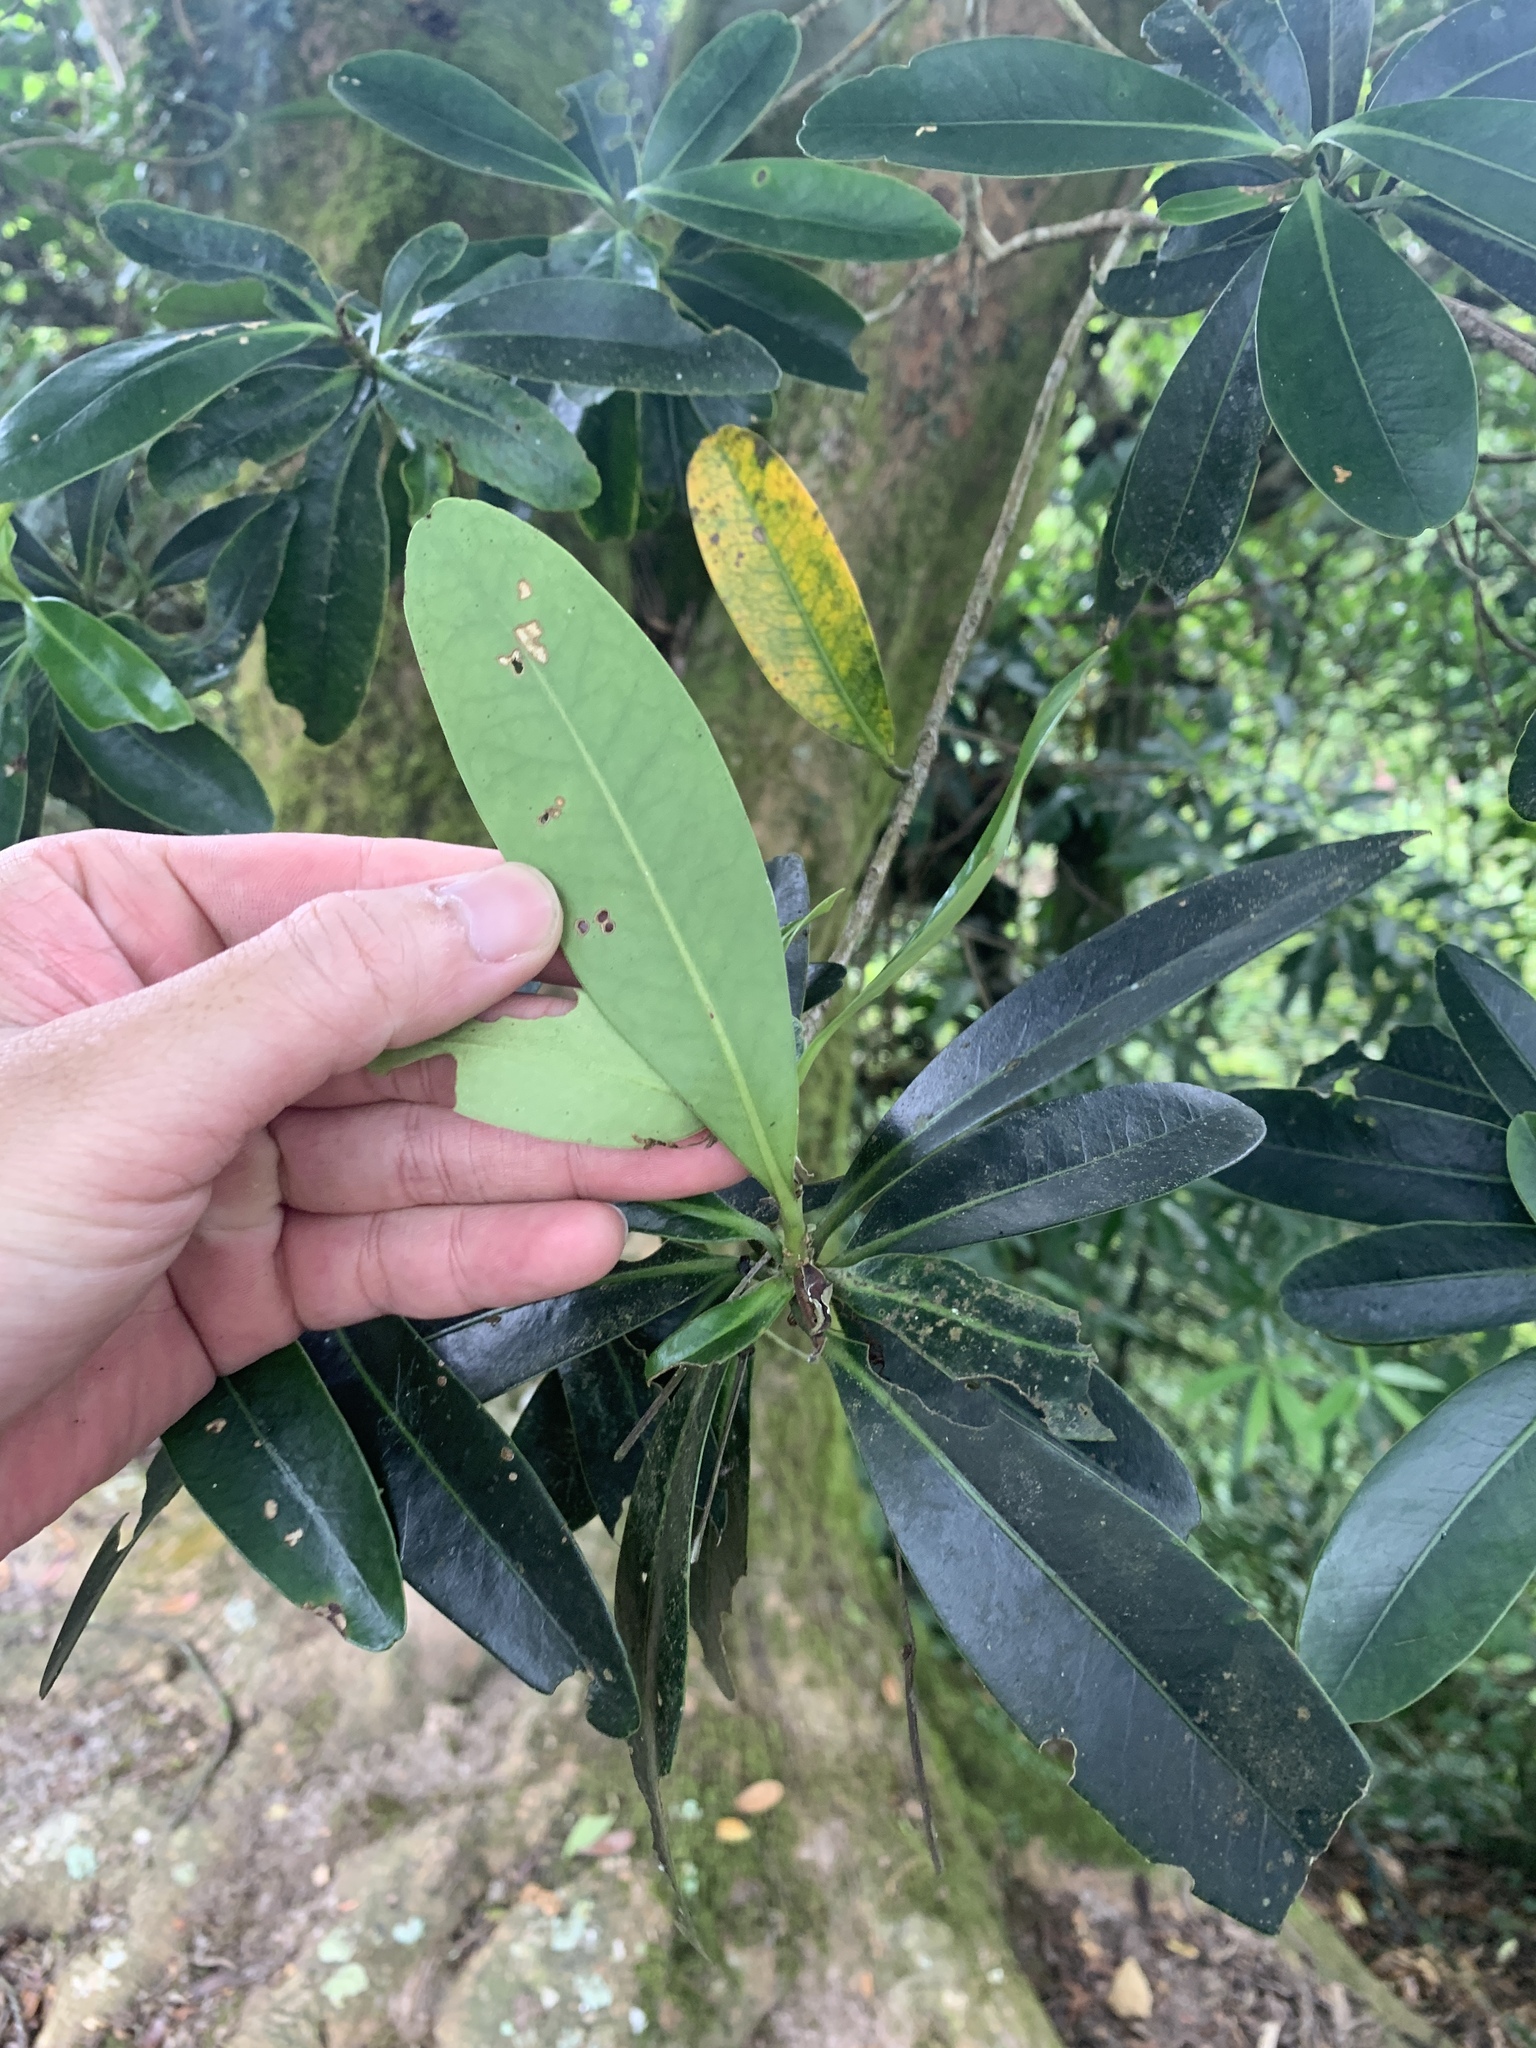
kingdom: Plantae
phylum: Tracheophyta
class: Magnoliopsida
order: Ericales
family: Theaceae
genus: Polyspora
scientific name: Polyspora axillaris
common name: Fried egg tree
